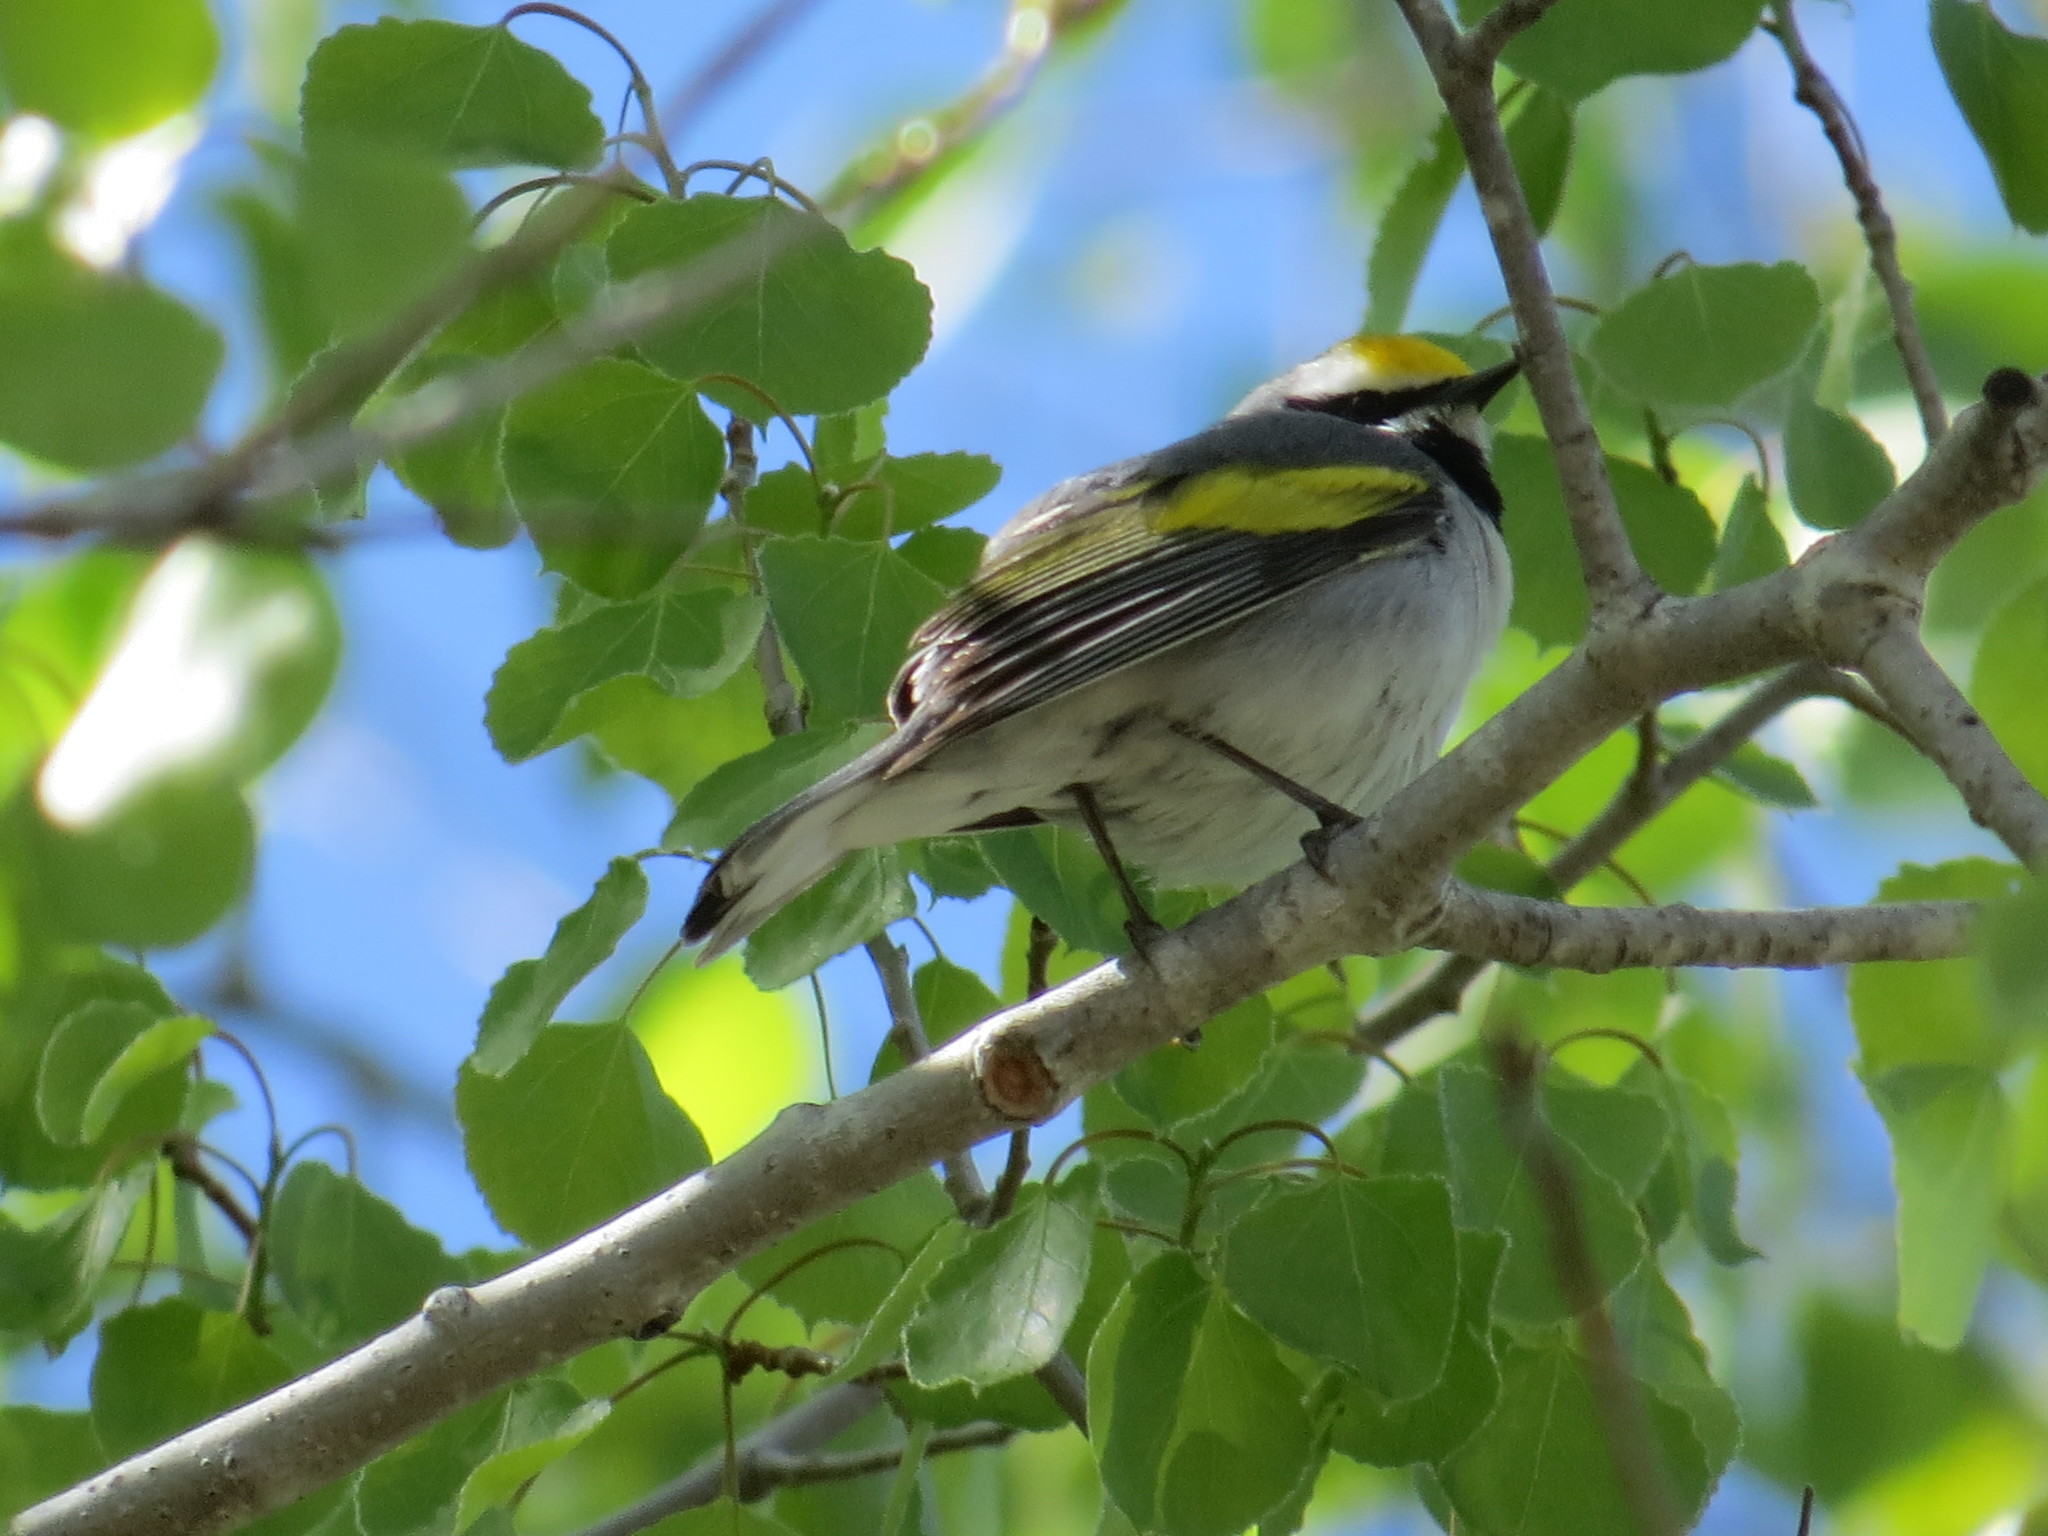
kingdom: Animalia
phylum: Chordata
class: Aves
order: Passeriformes
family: Parulidae
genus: Vermivora
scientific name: Vermivora chrysoptera
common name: Golden-winged warbler
